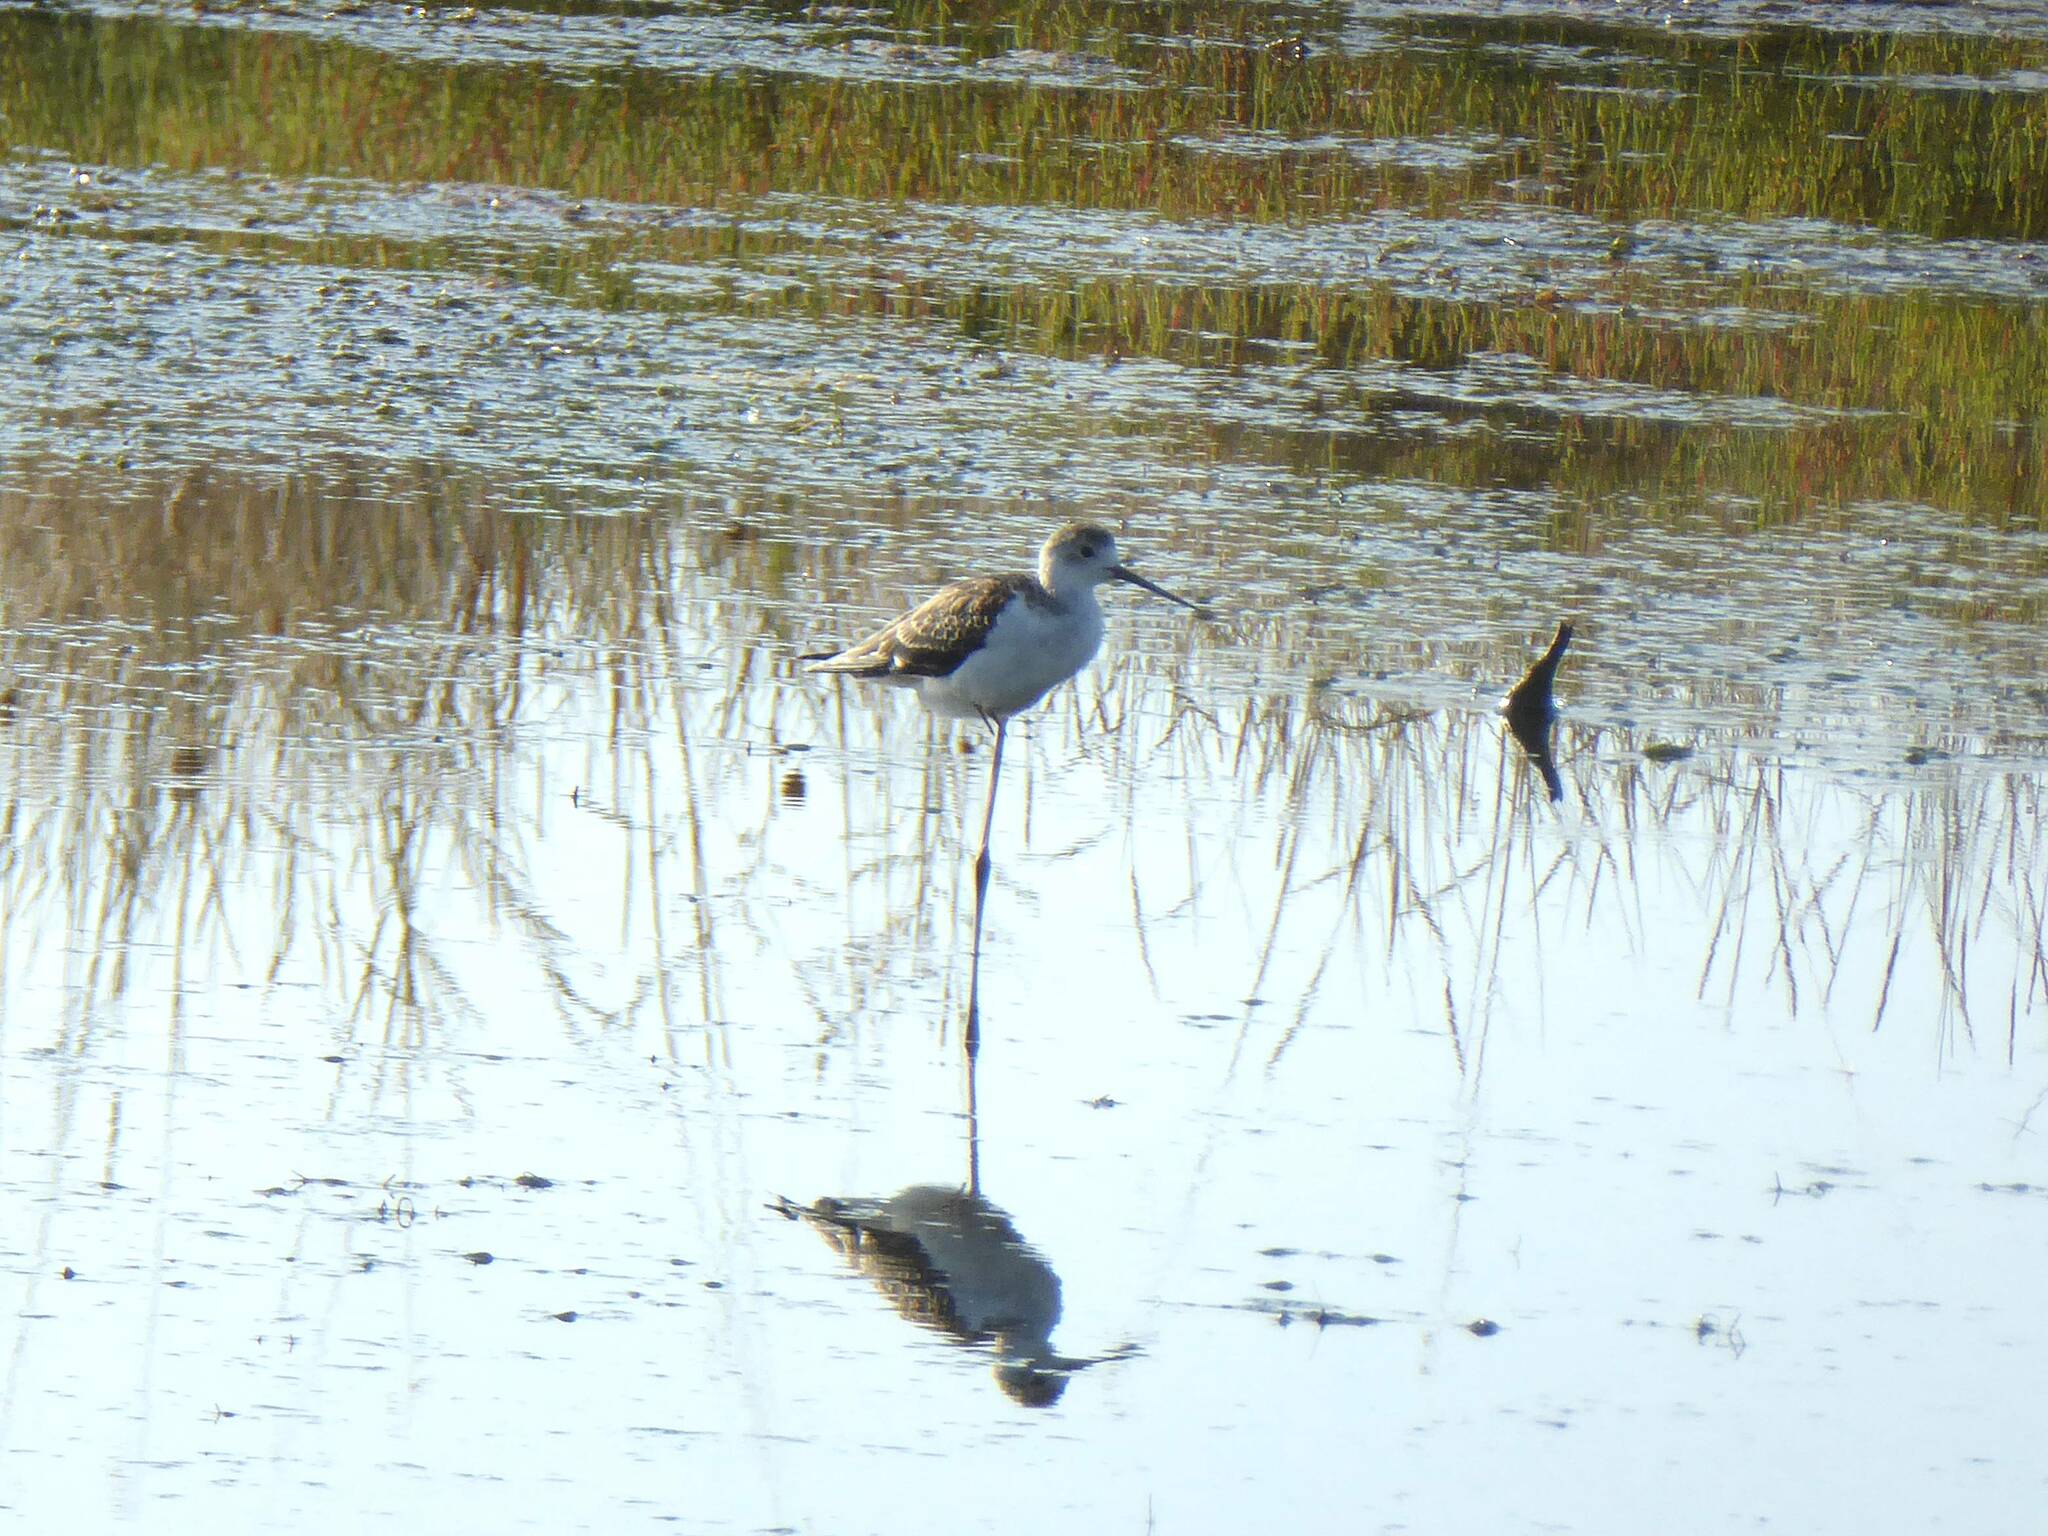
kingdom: Animalia
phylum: Chordata
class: Aves
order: Charadriiformes
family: Recurvirostridae
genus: Himantopus
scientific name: Himantopus himantopus
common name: Black-winged stilt
